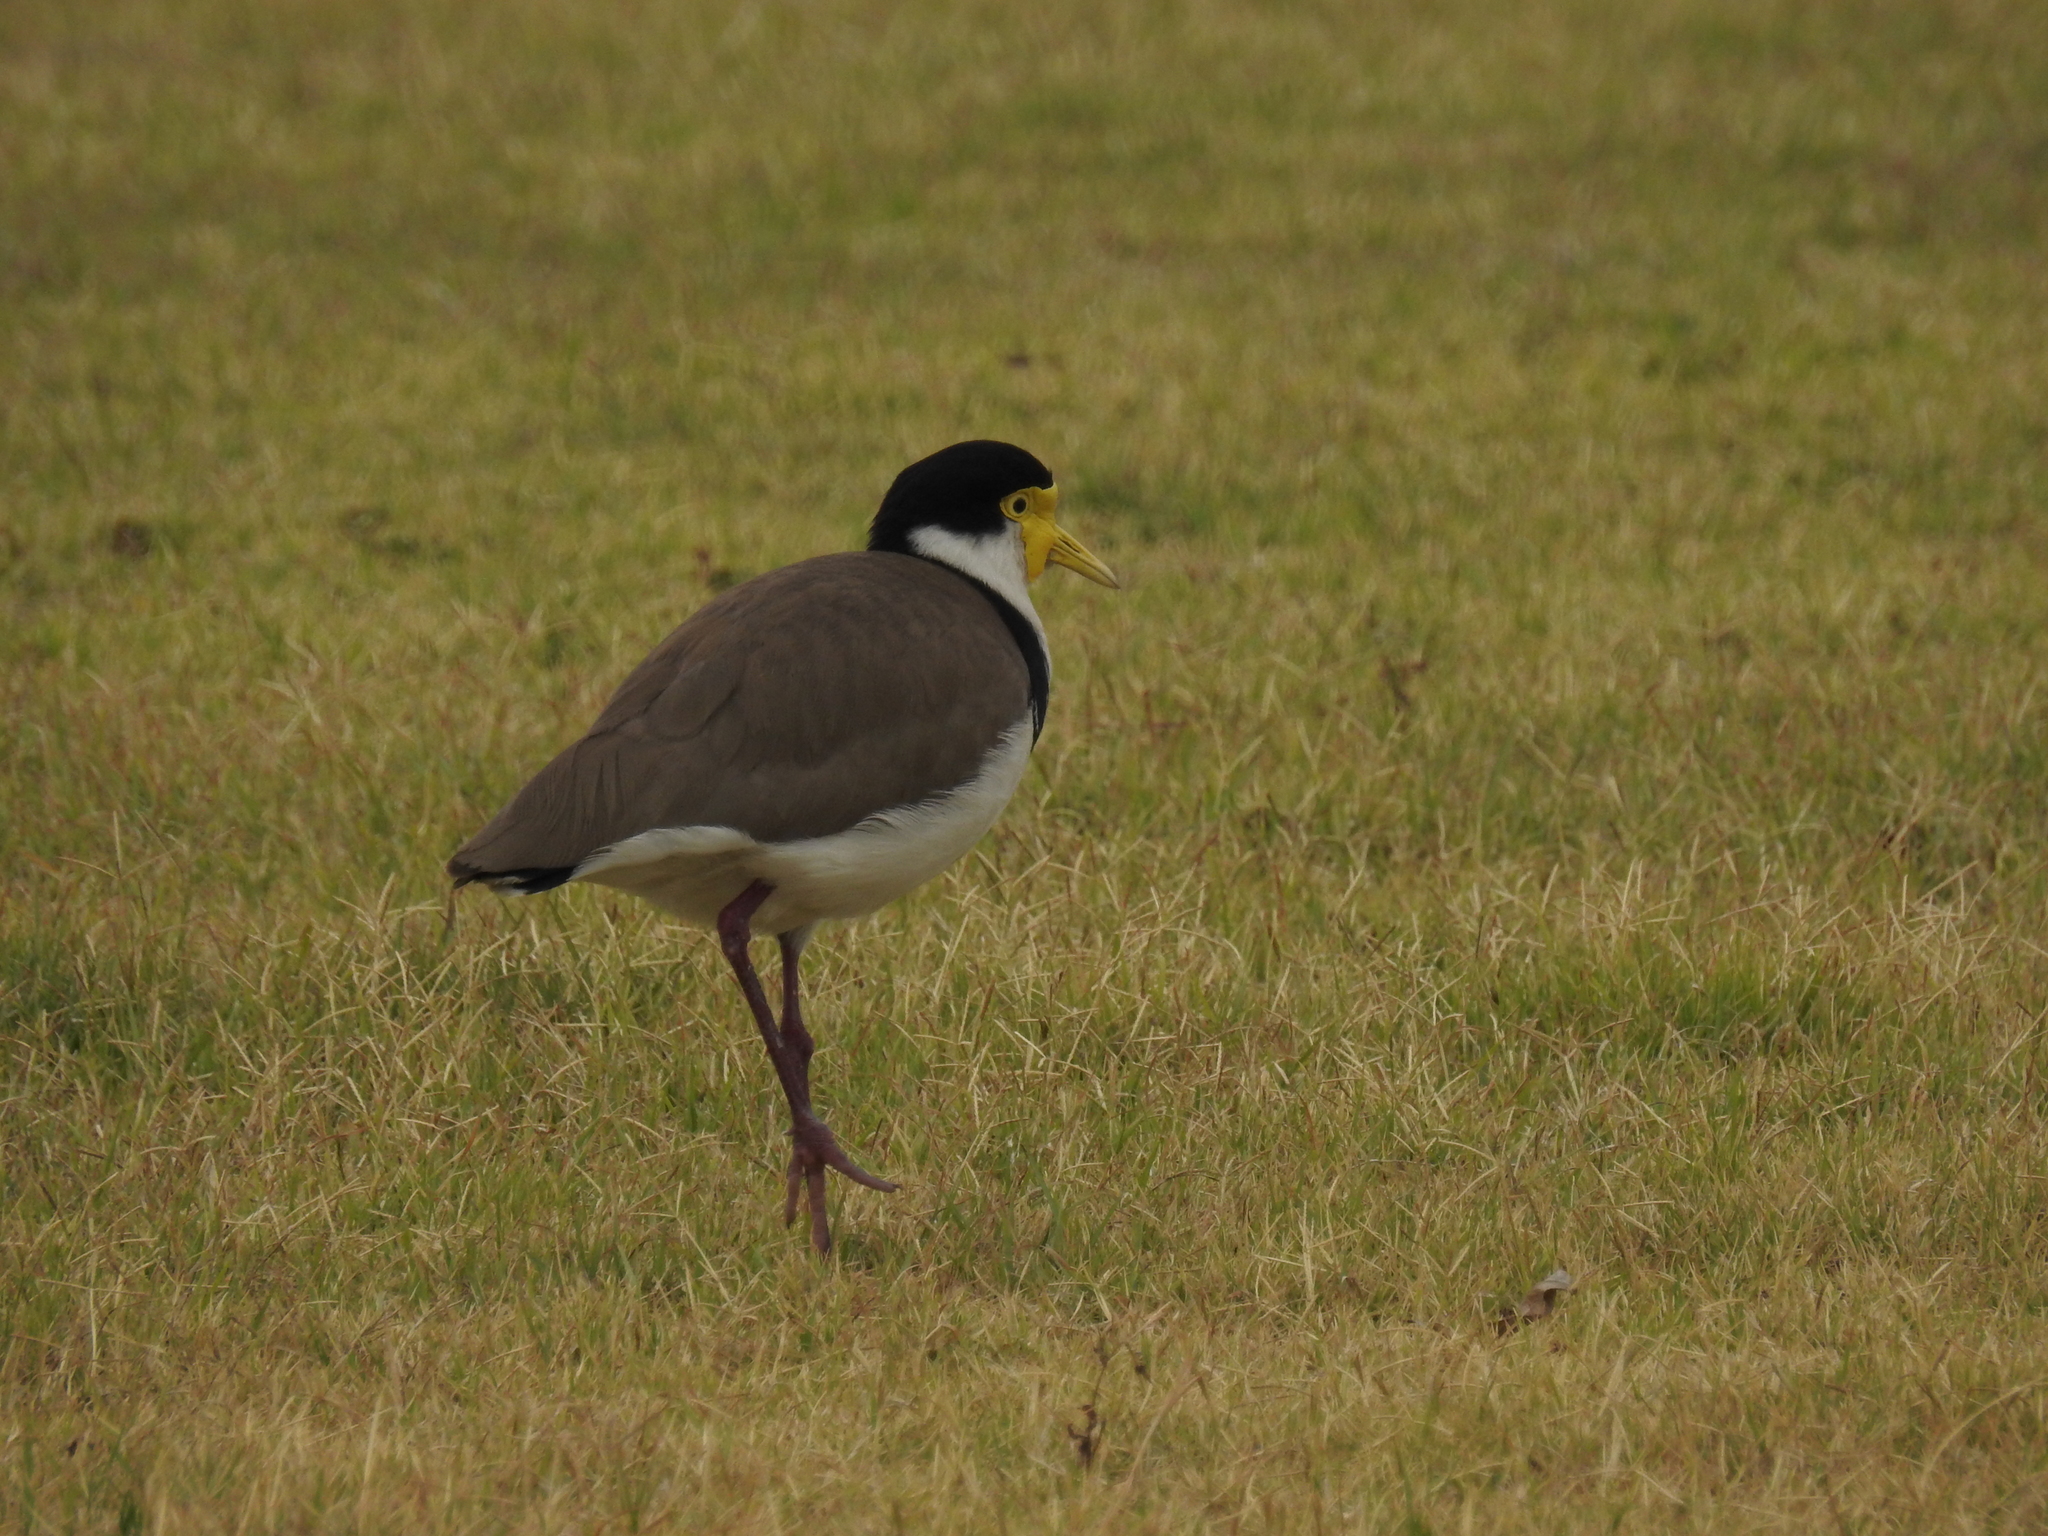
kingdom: Animalia
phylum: Chordata
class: Aves
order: Charadriiformes
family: Charadriidae
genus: Vanellus
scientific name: Vanellus miles
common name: Masked lapwing
